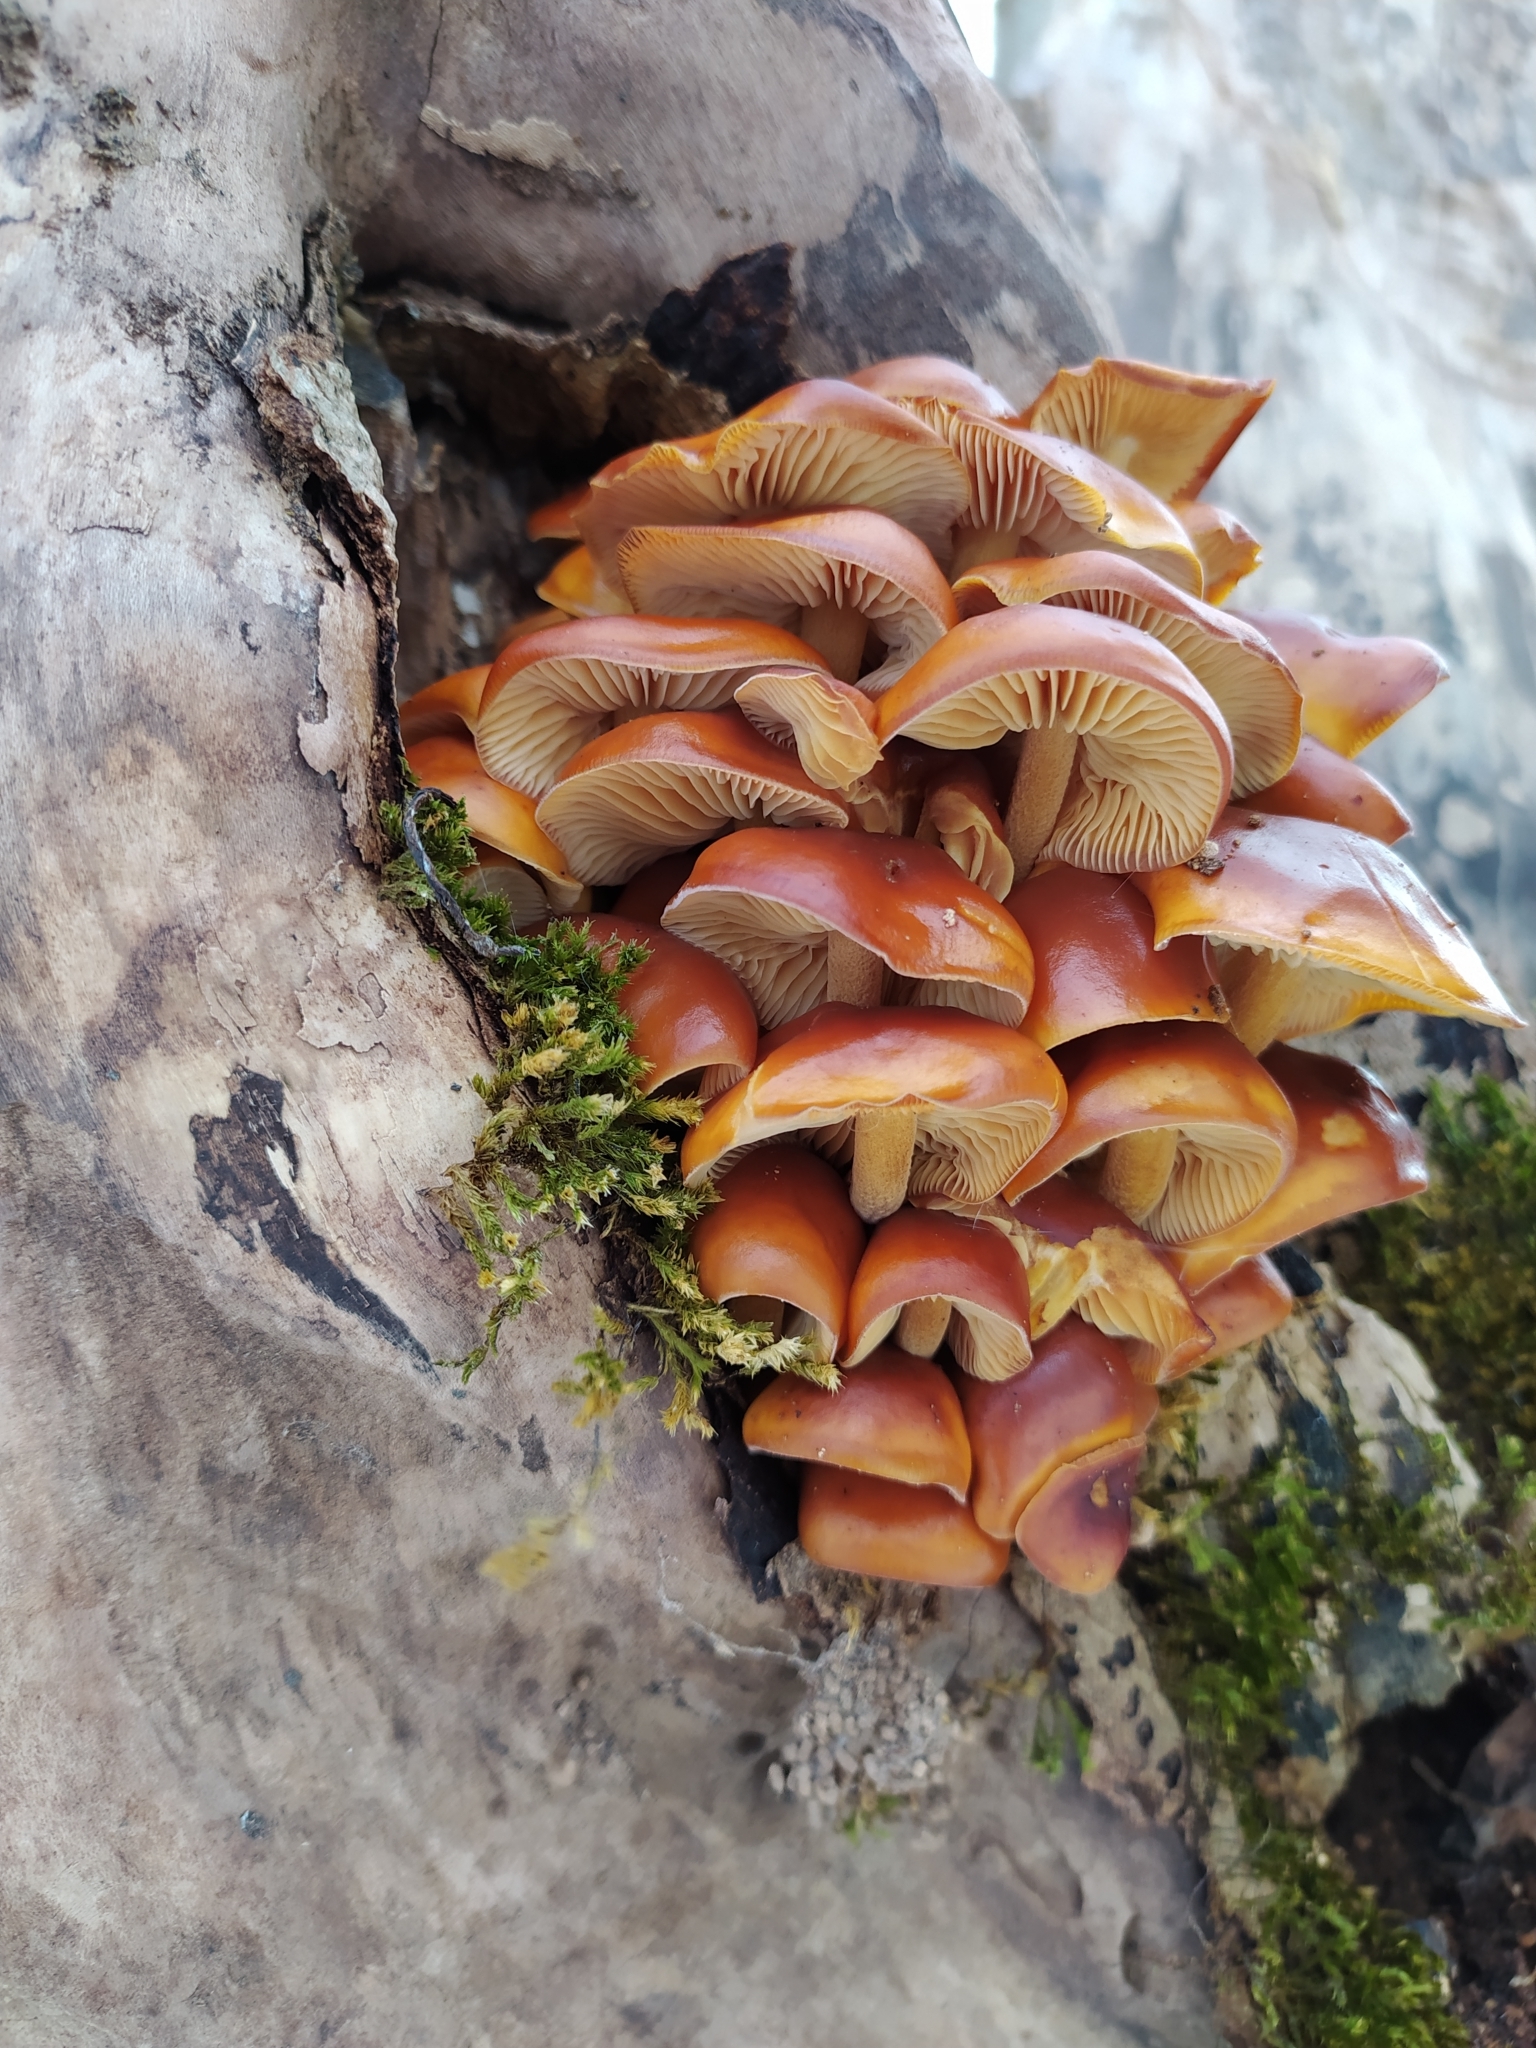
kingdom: Fungi
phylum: Basidiomycota
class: Agaricomycetes
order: Agaricales
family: Physalacriaceae
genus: Flammulina
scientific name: Flammulina
